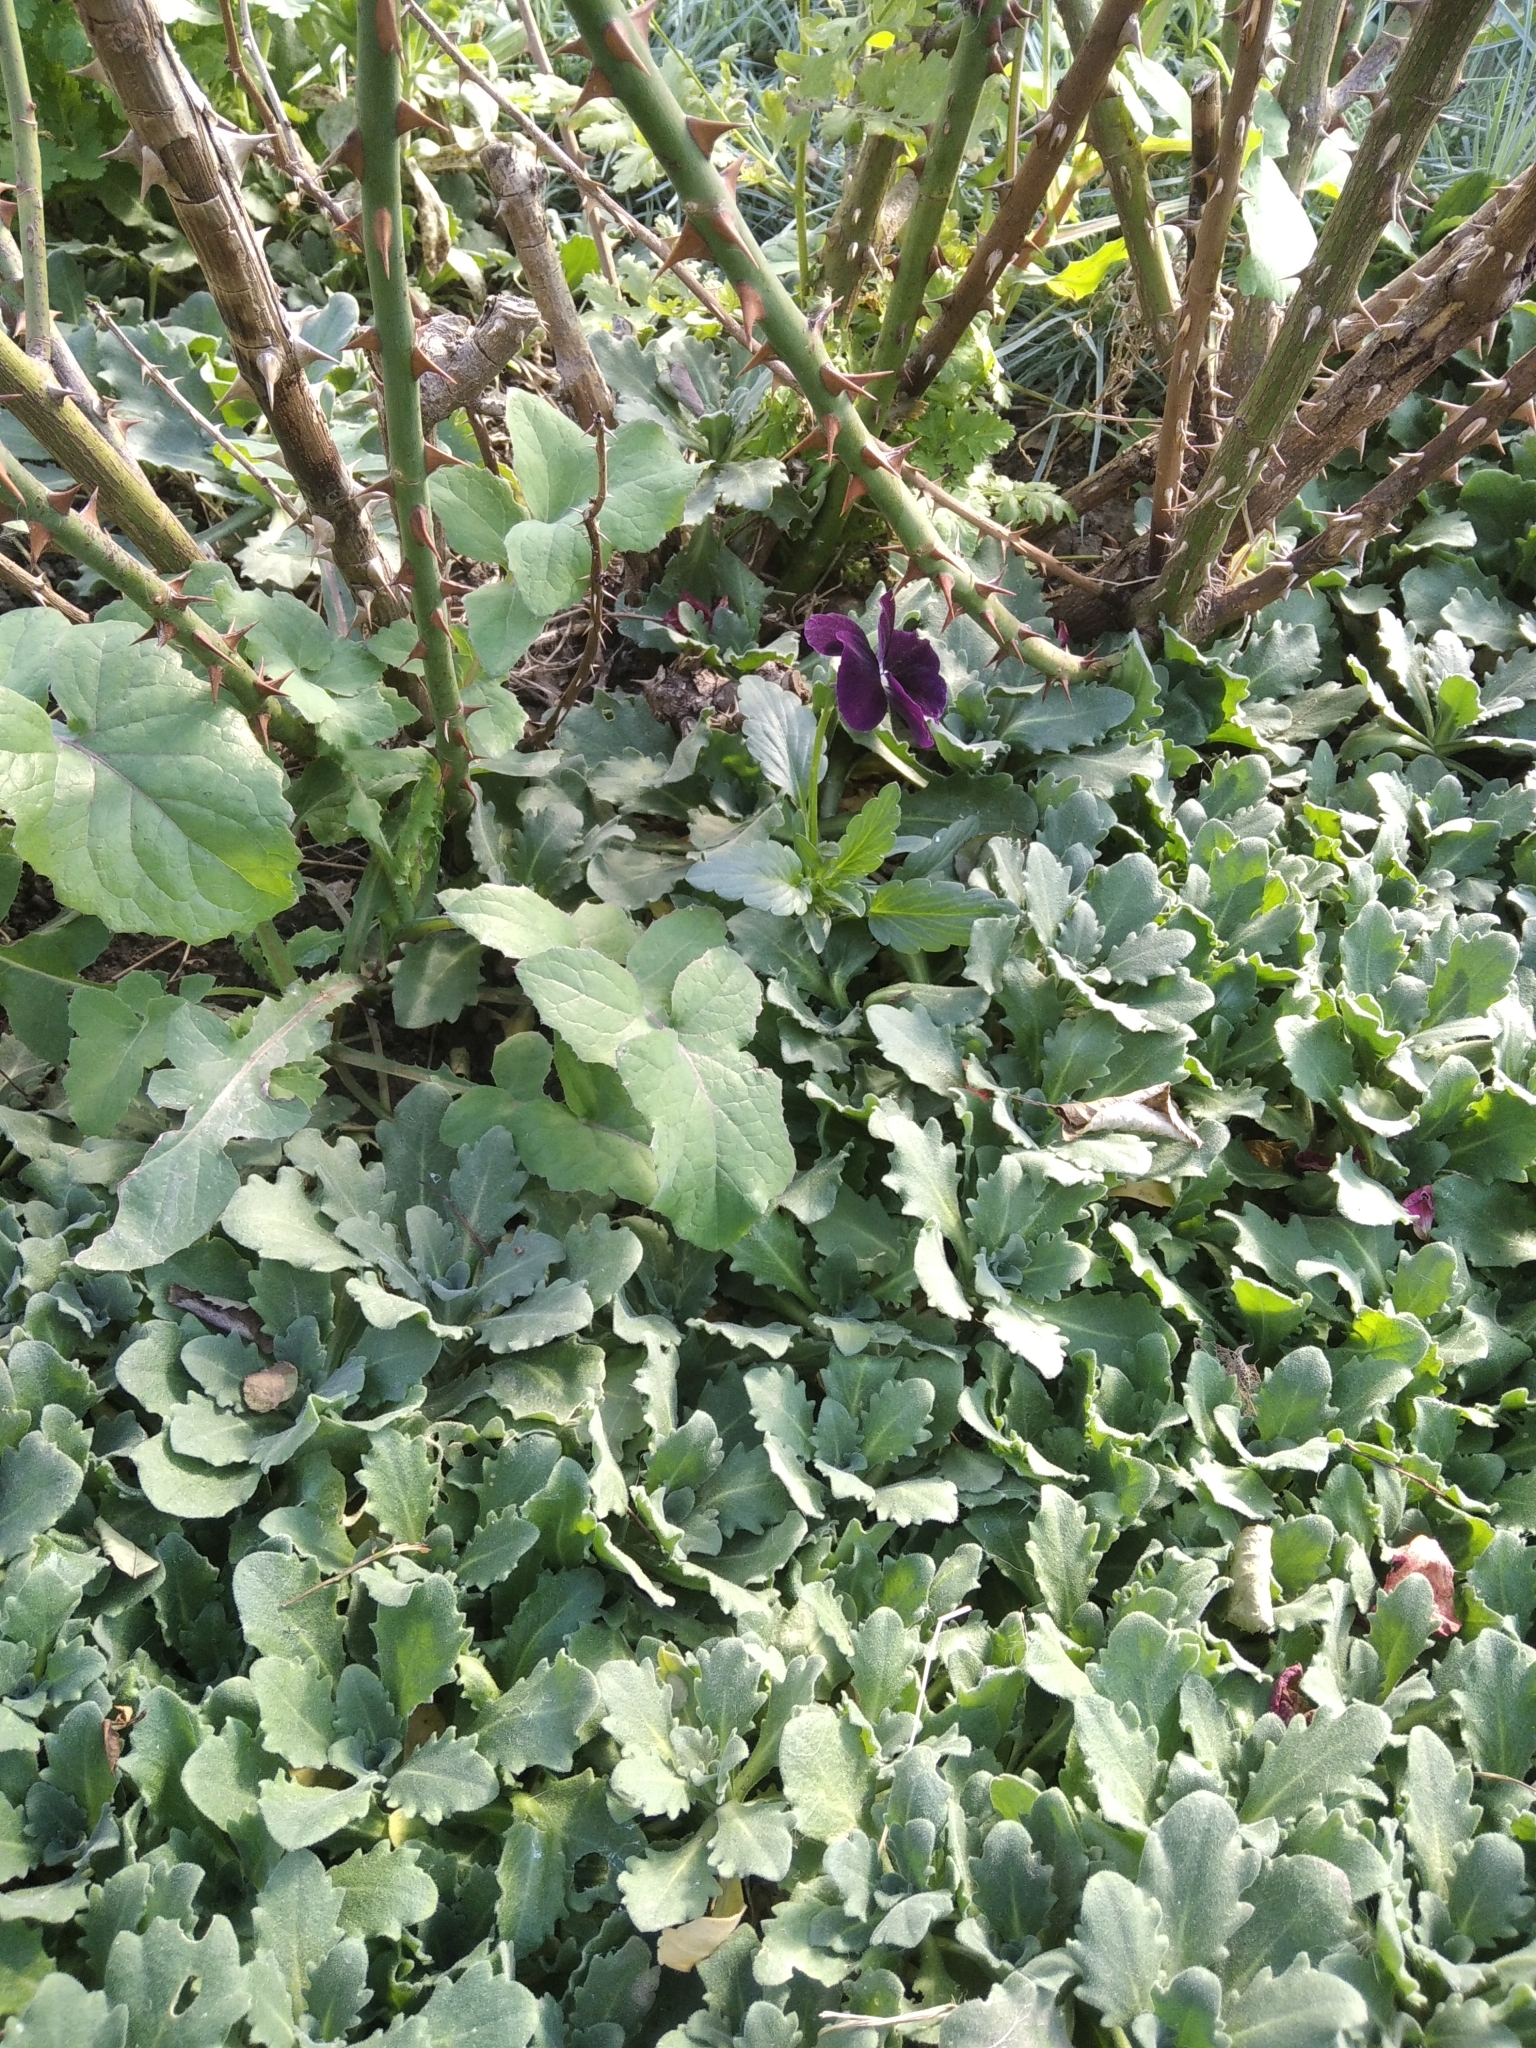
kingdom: Plantae
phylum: Tracheophyta
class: Magnoliopsida
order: Malpighiales
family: Violaceae
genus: Viola
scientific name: Viola wittrockiana
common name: Garden pansy
